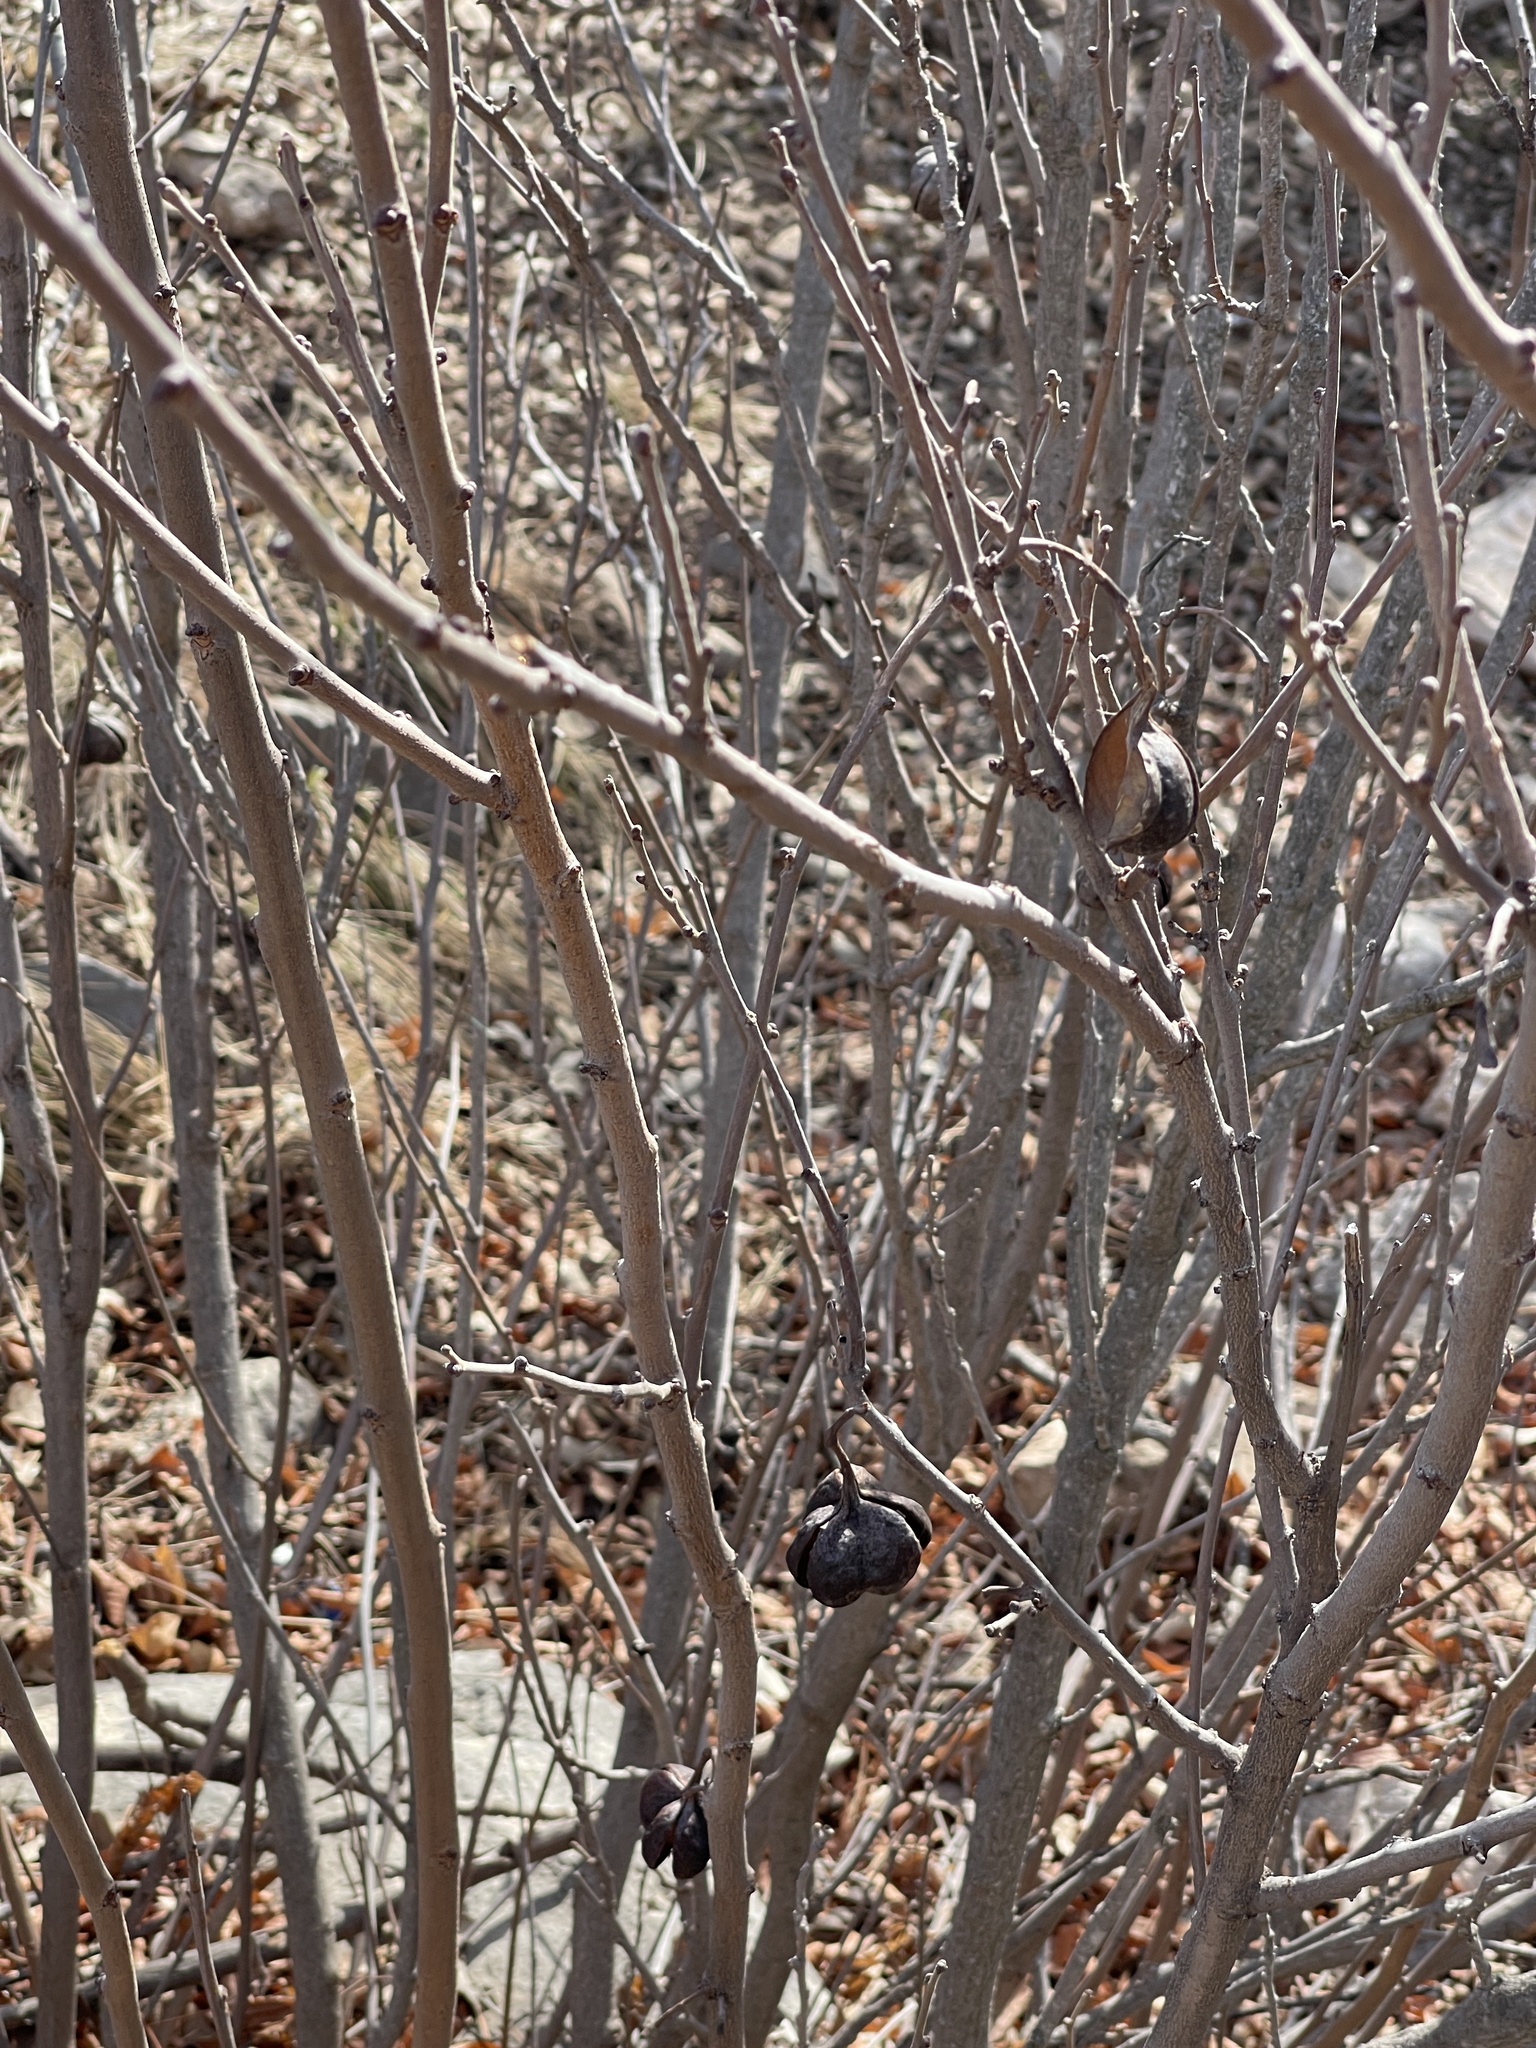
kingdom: Plantae
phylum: Tracheophyta
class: Magnoliopsida
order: Sapindales
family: Sapindaceae
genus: Ungnadia
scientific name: Ungnadia speciosa
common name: Texas-buckeye
